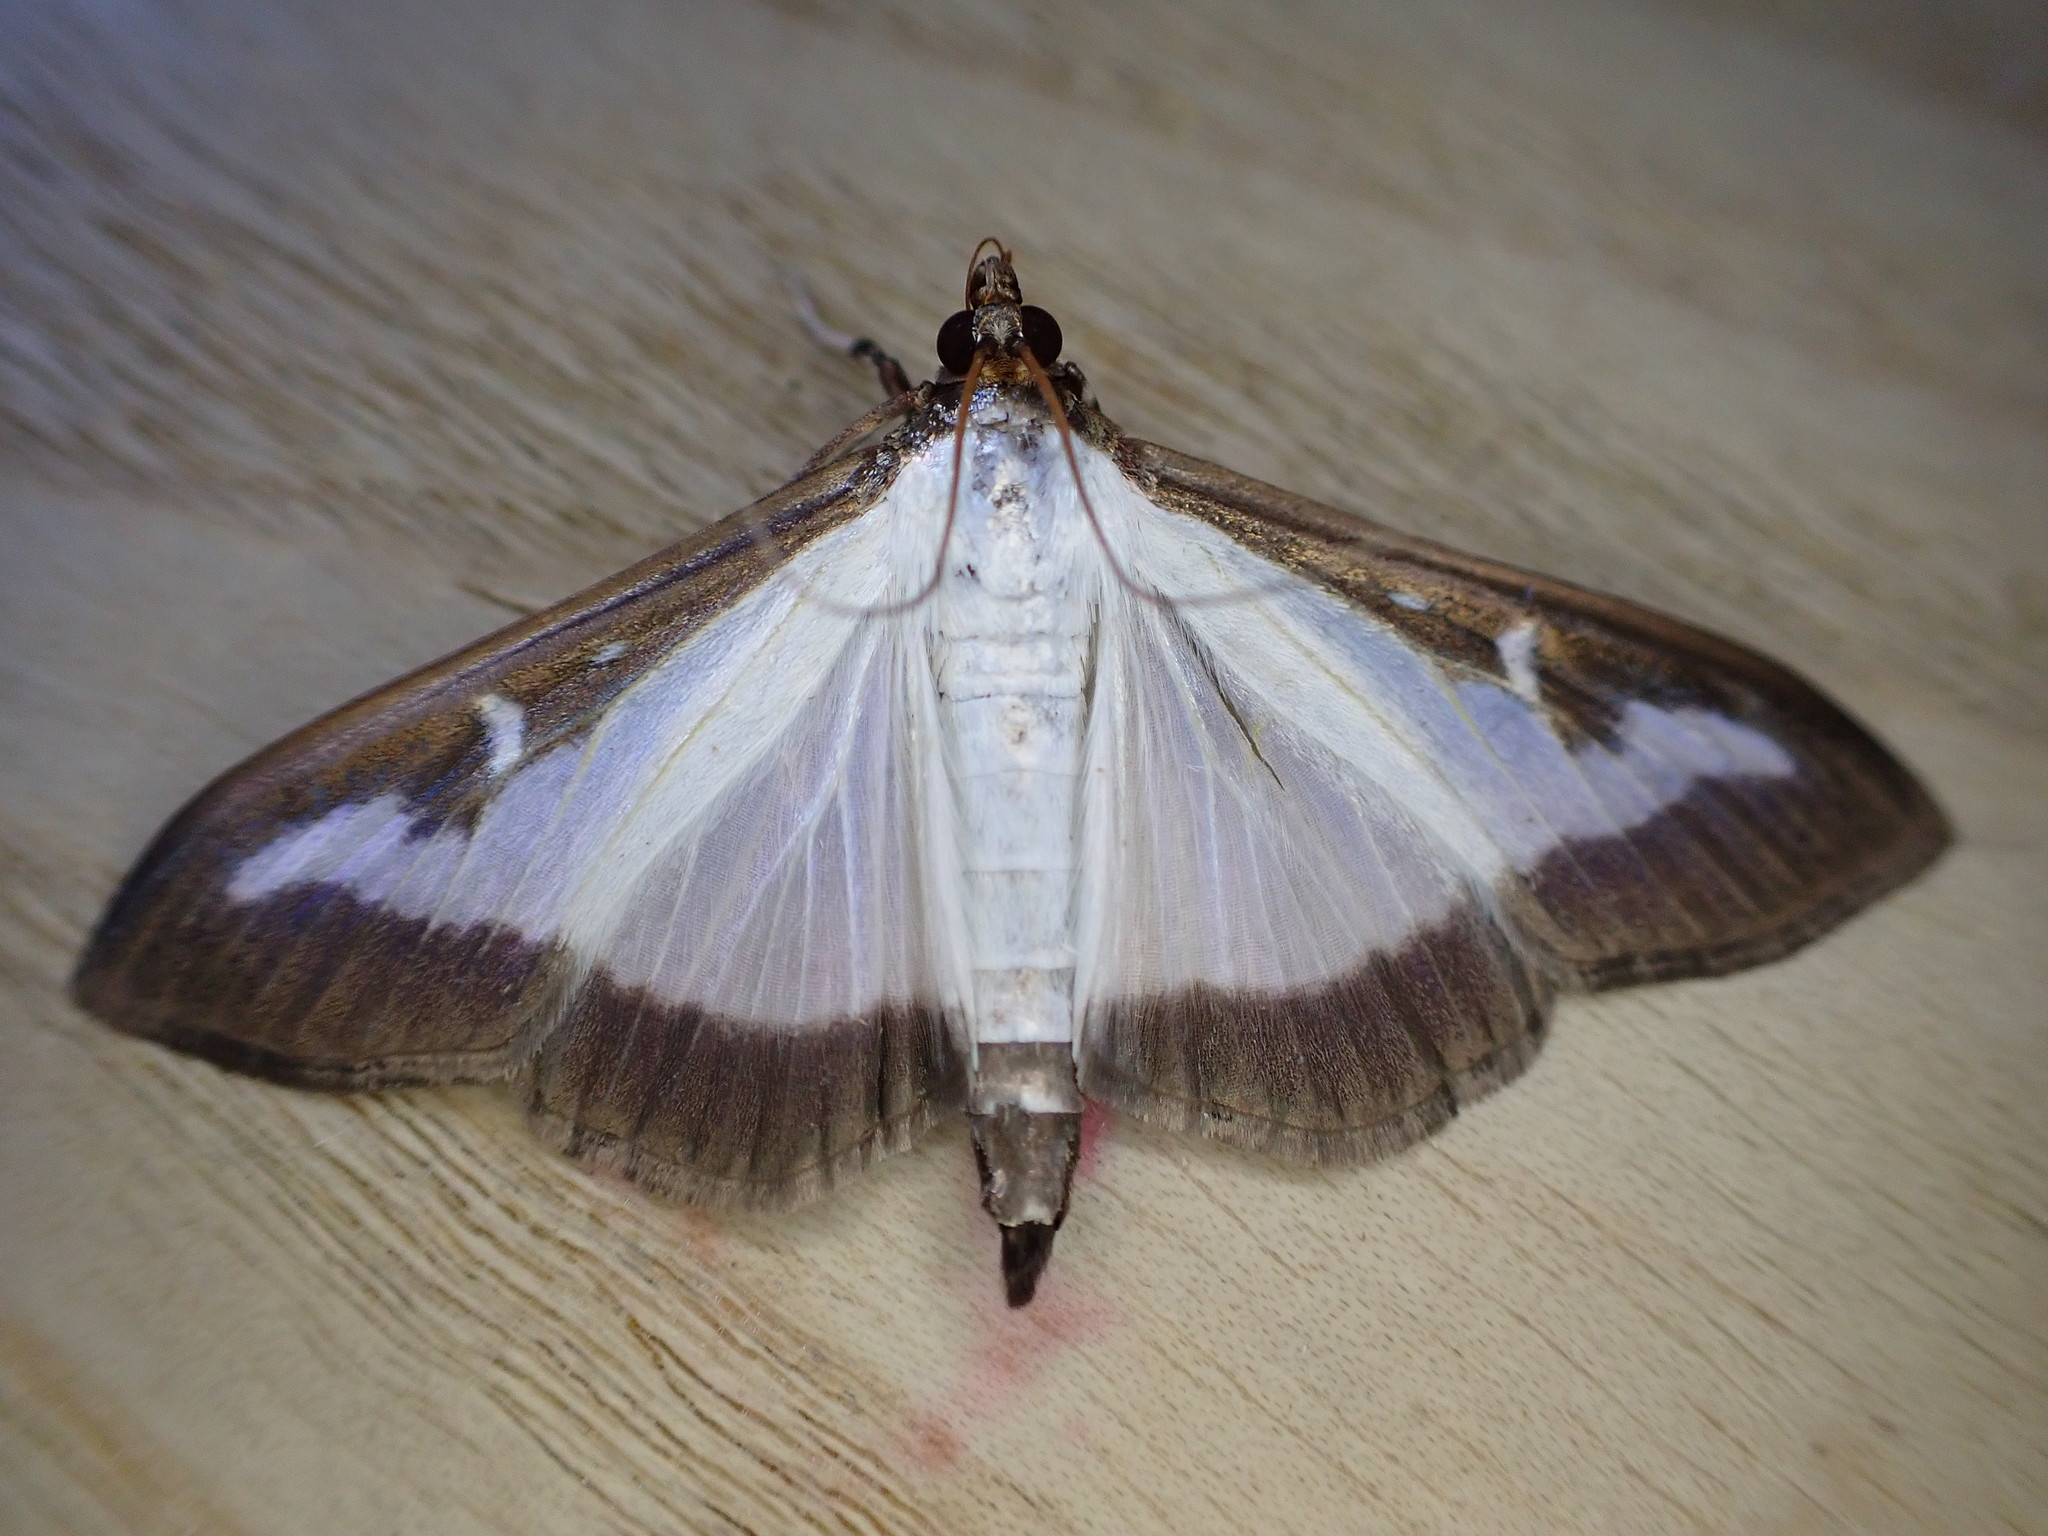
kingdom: Animalia
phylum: Arthropoda
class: Insecta
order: Lepidoptera
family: Crambidae
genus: Cydalima
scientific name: Cydalima perspectalis
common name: Box tree moth
